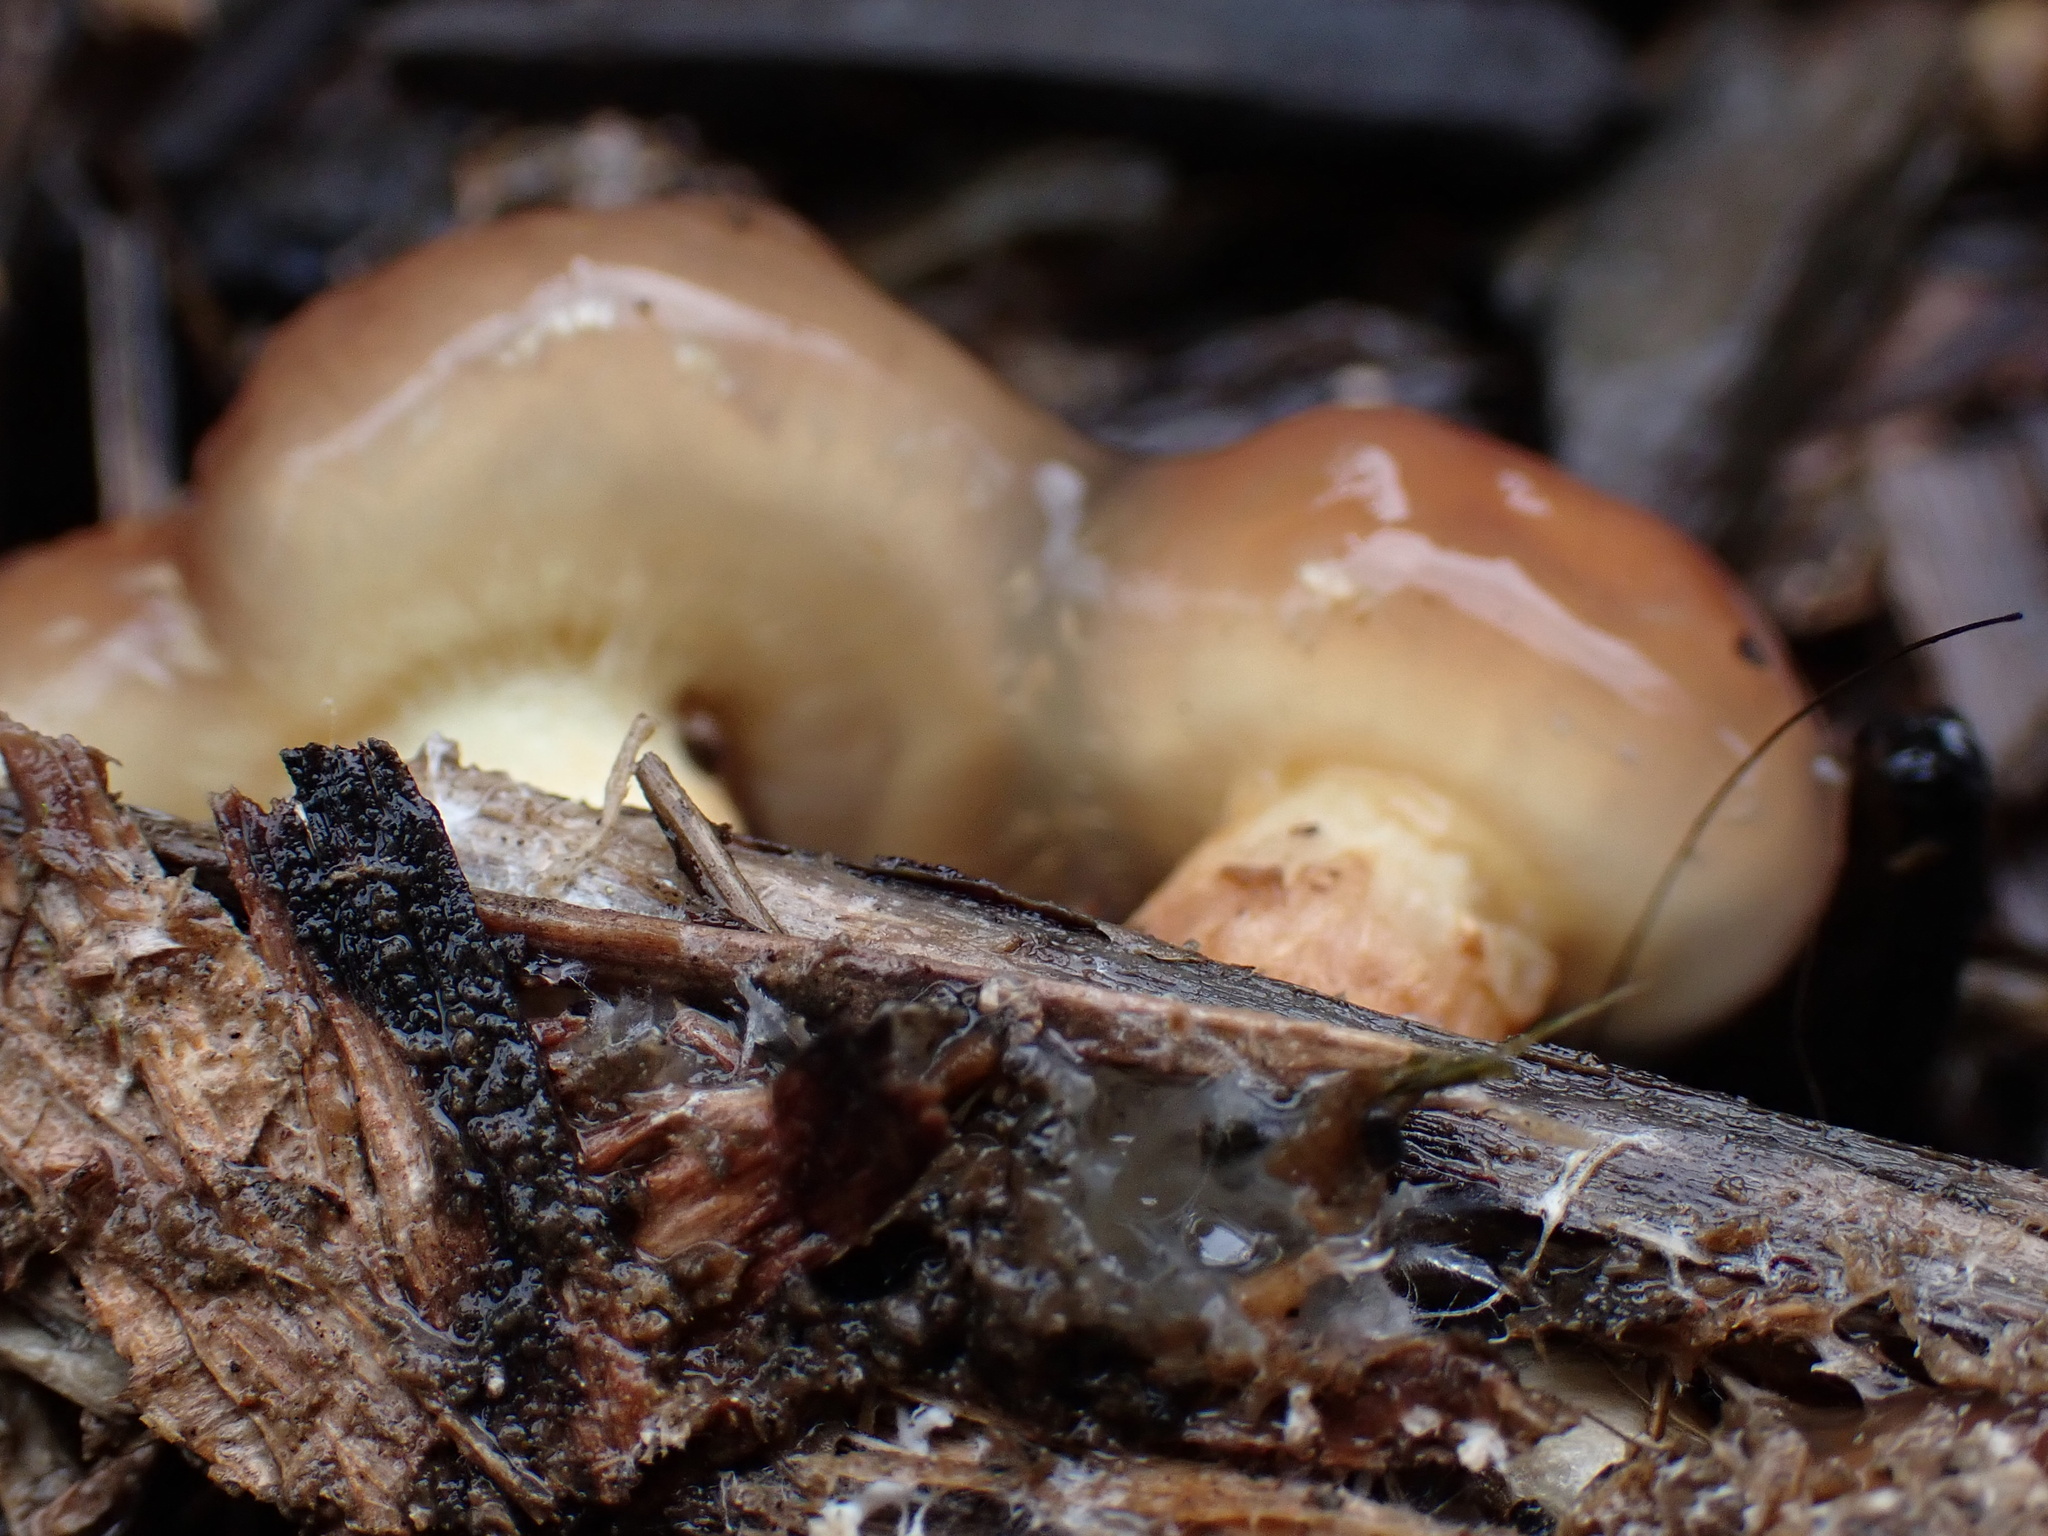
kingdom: Fungi
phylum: Basidiomycota
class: Agaricomycetes
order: Agaricales
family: Strophariaceae
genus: Pholiota
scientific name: Pholiota velaglutinosa
